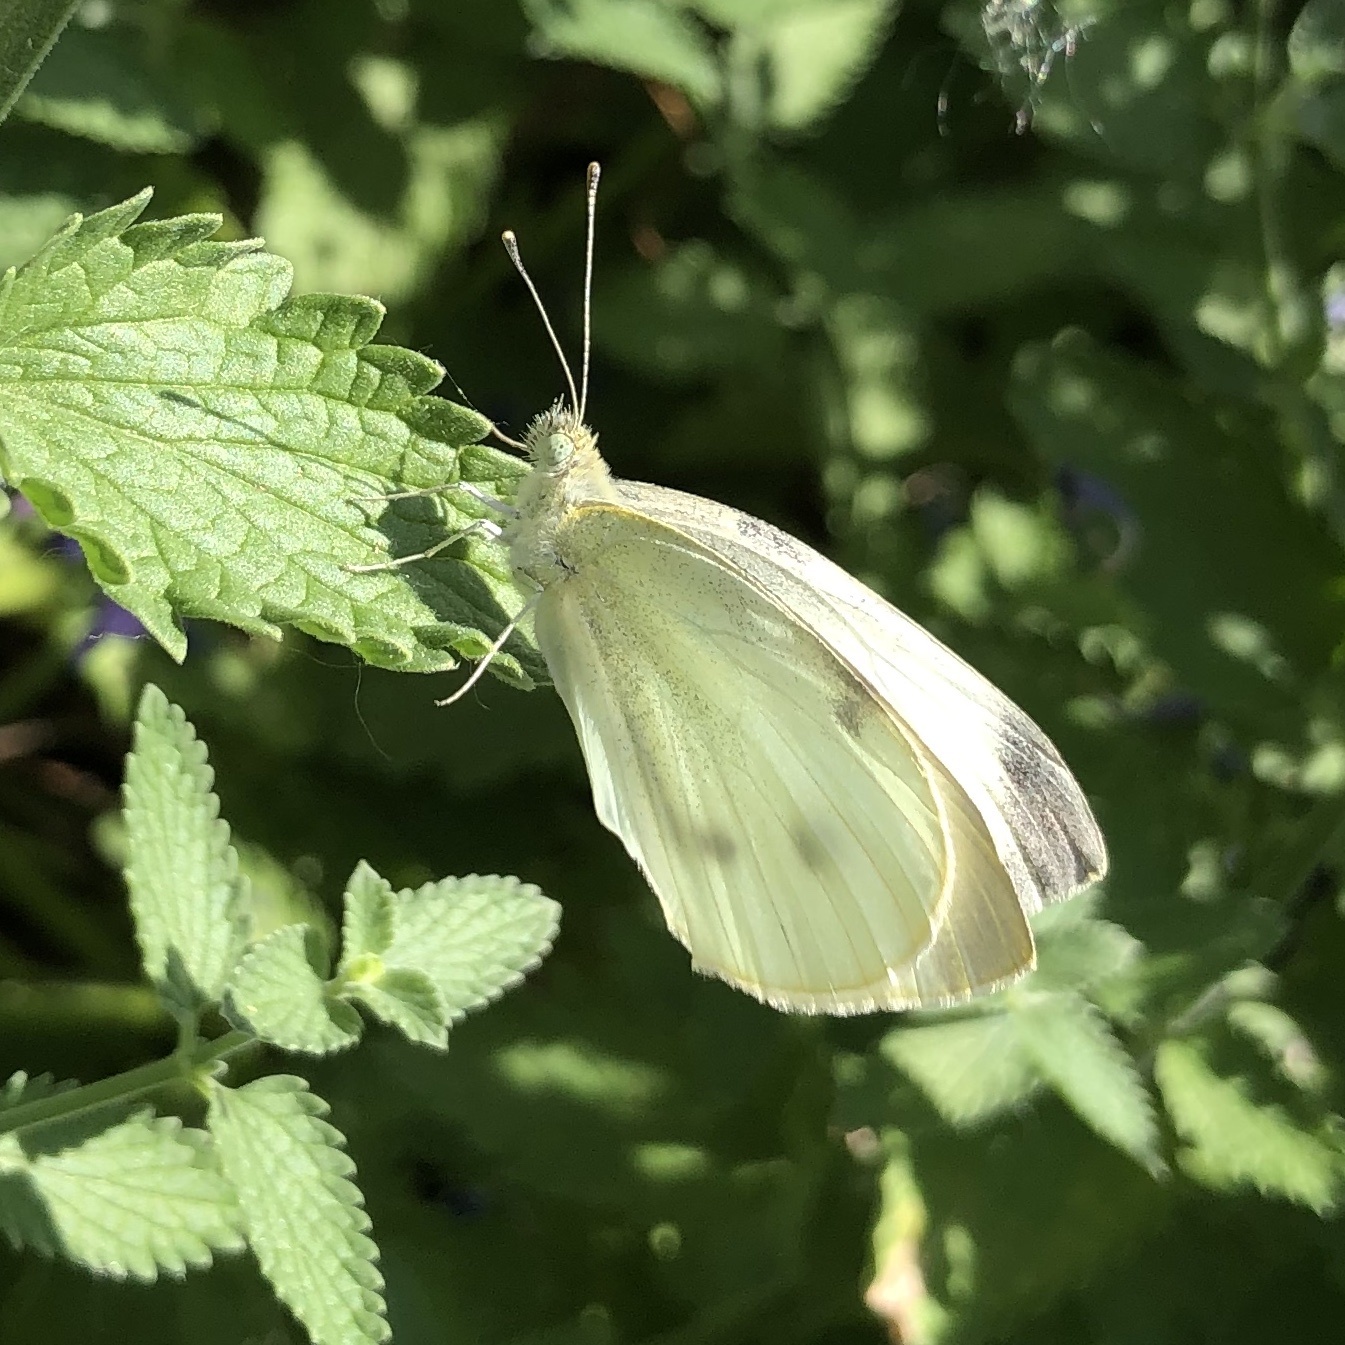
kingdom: Animalia
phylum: Arthropoda
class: Insecta
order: Lepidoptera
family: Pieridae
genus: Pieris
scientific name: Pieris rapae
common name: Small white
